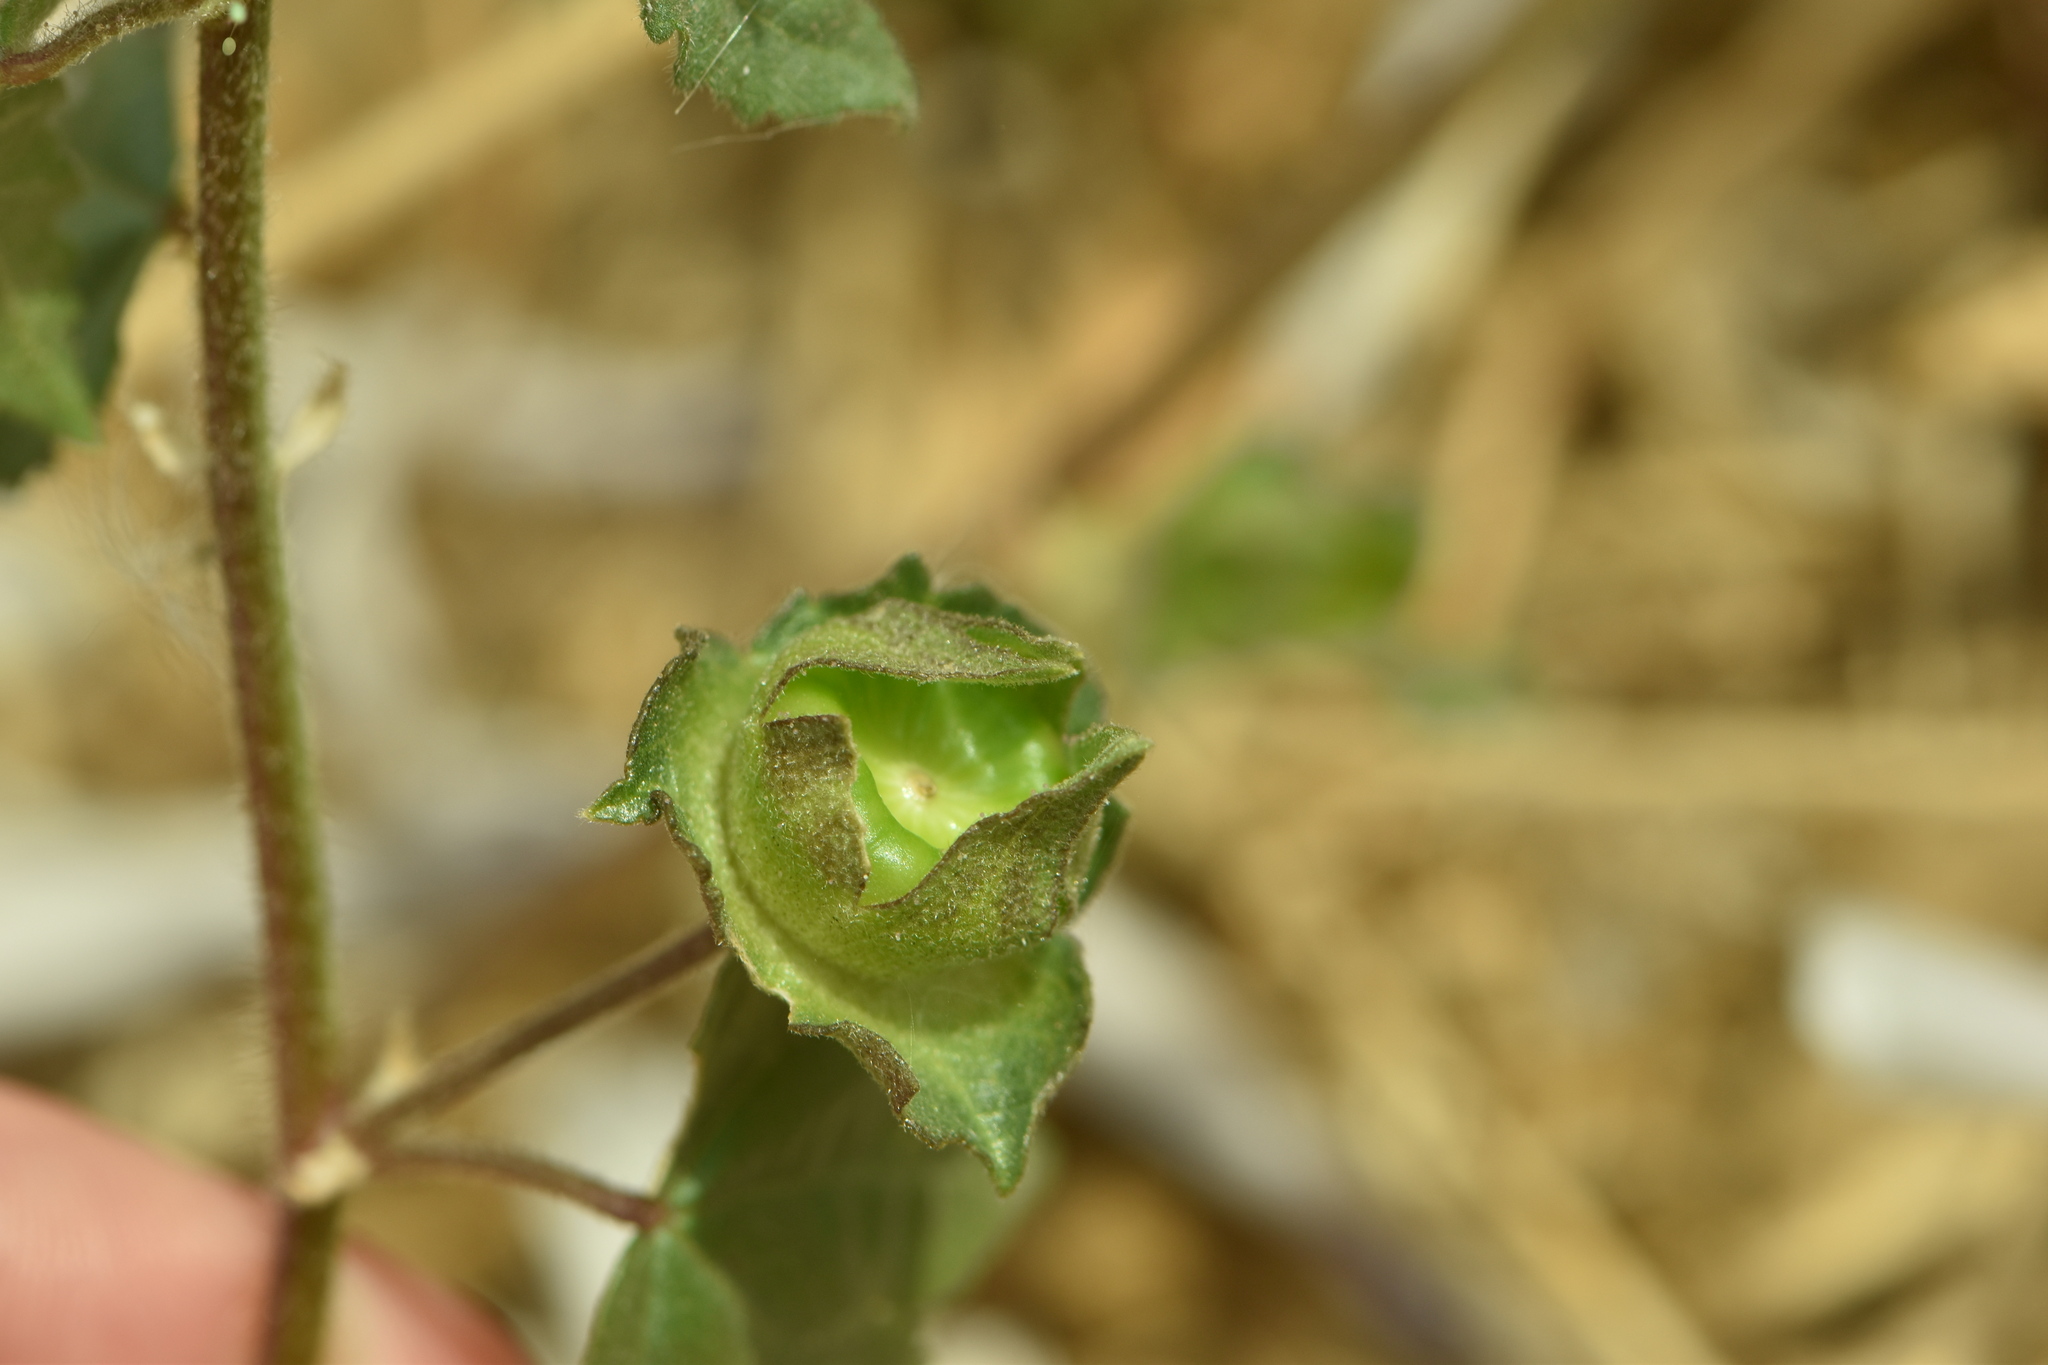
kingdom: Plantae
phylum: Tracheophyta
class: Magnoliopsida
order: Malvales
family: Malvaceae
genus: Malva
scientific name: Malva trimestris
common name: Royal mallow
